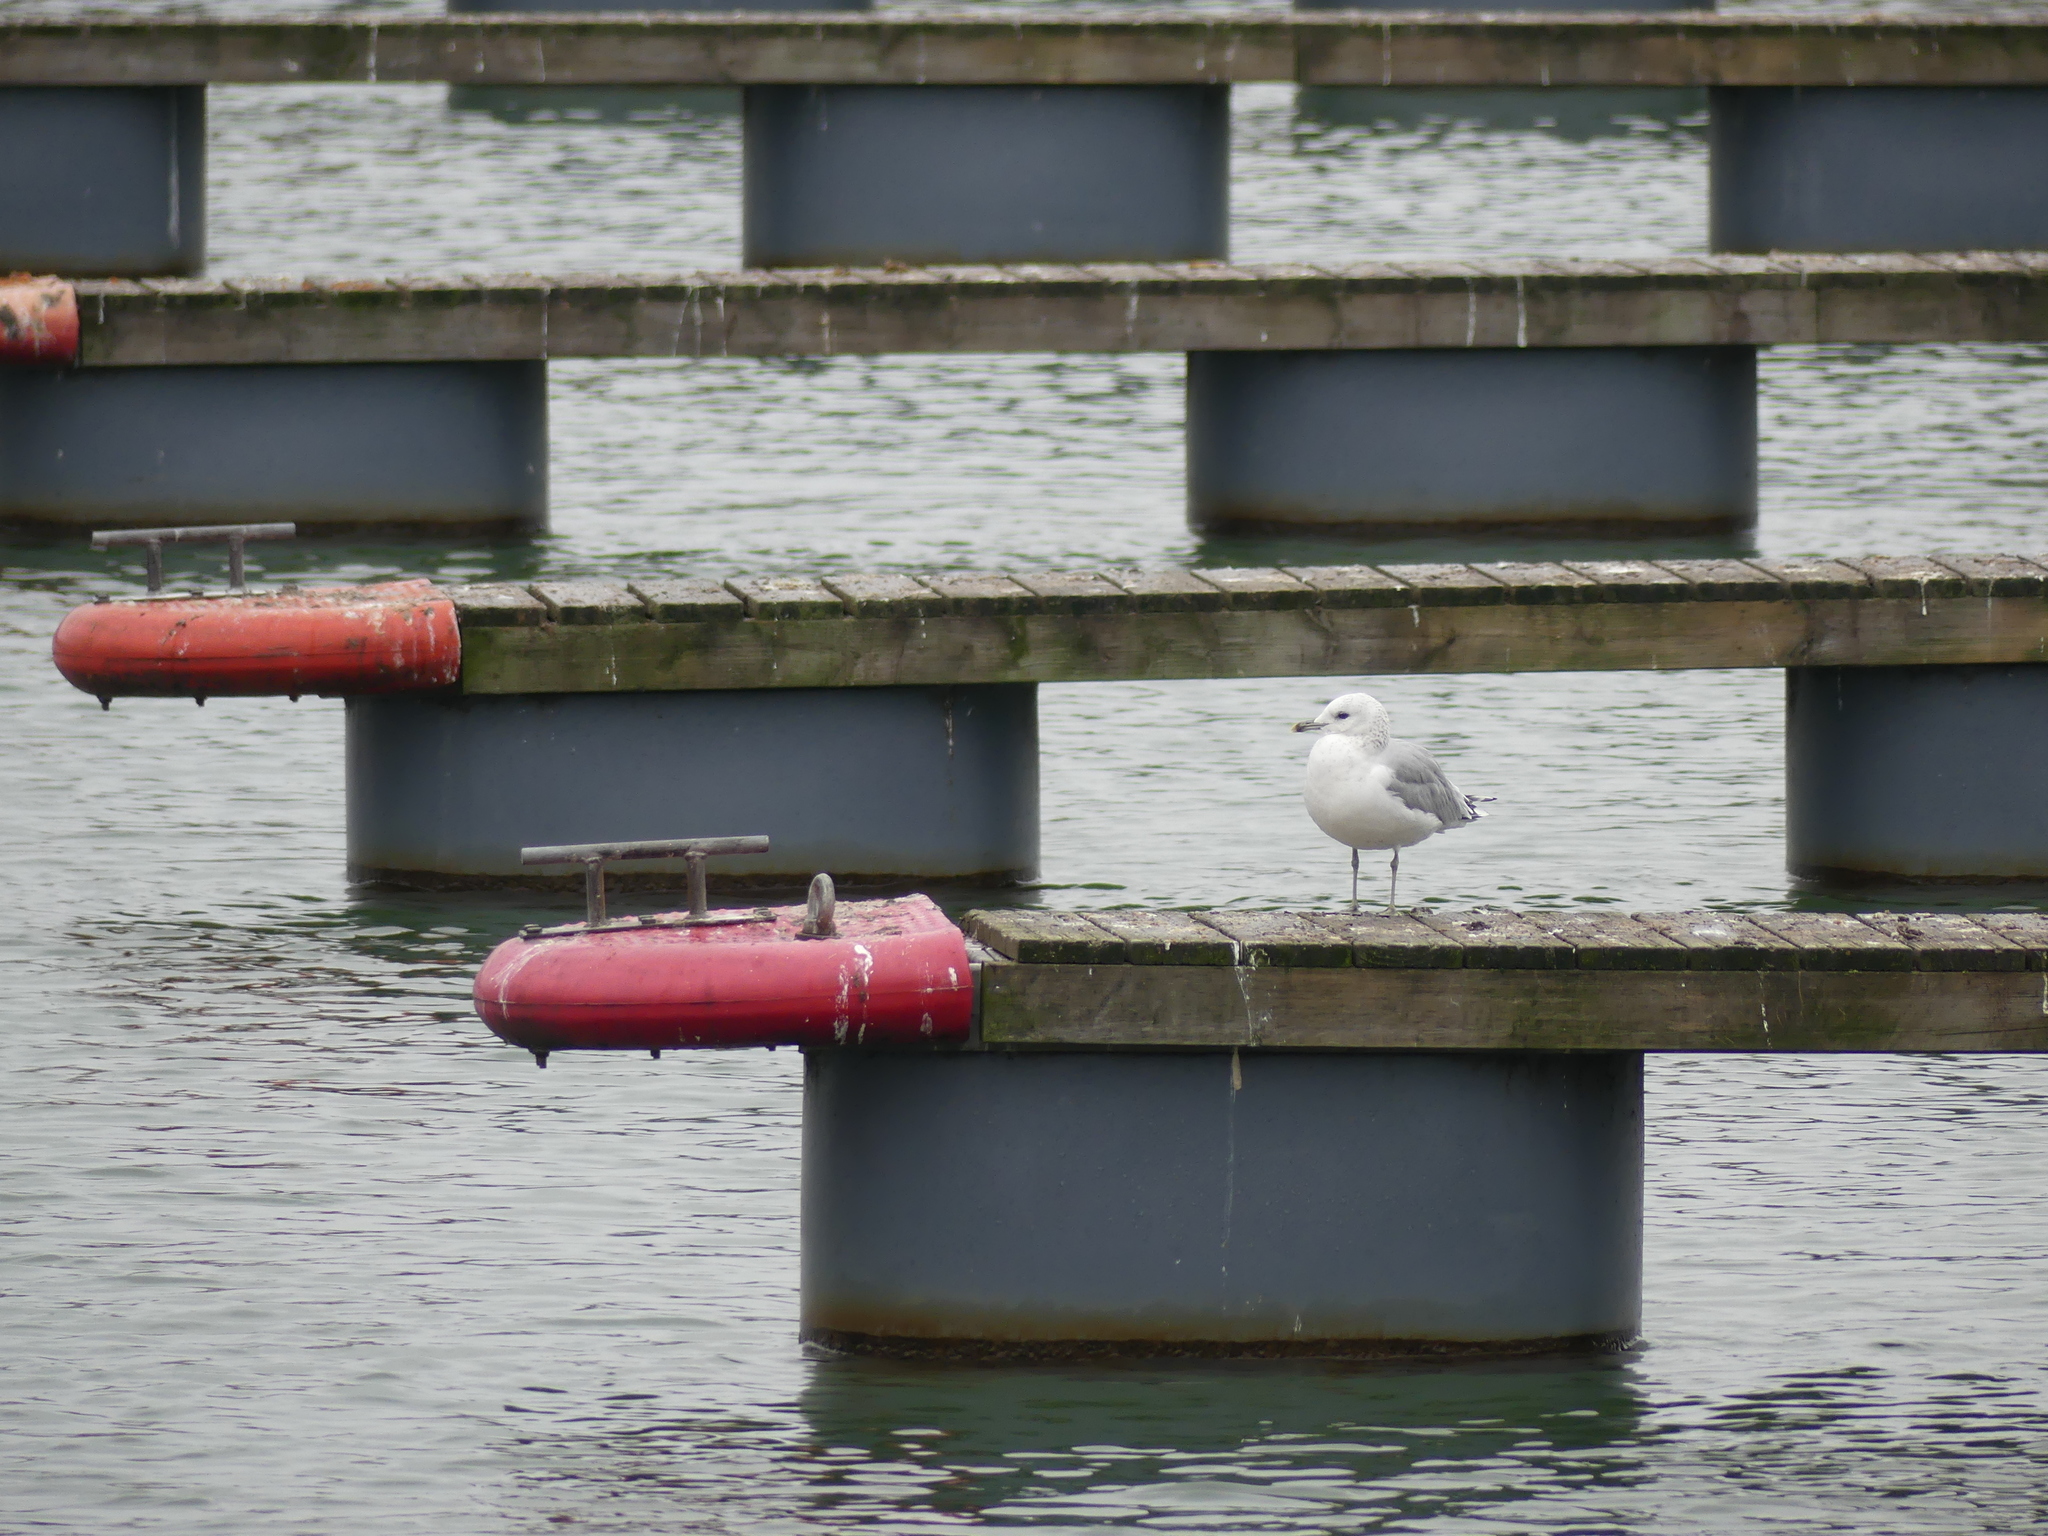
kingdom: Animalia
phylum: Chordata
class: Aves
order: Charadriiformes
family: Laridae
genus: Larus
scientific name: Larus canus
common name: Mew gull
